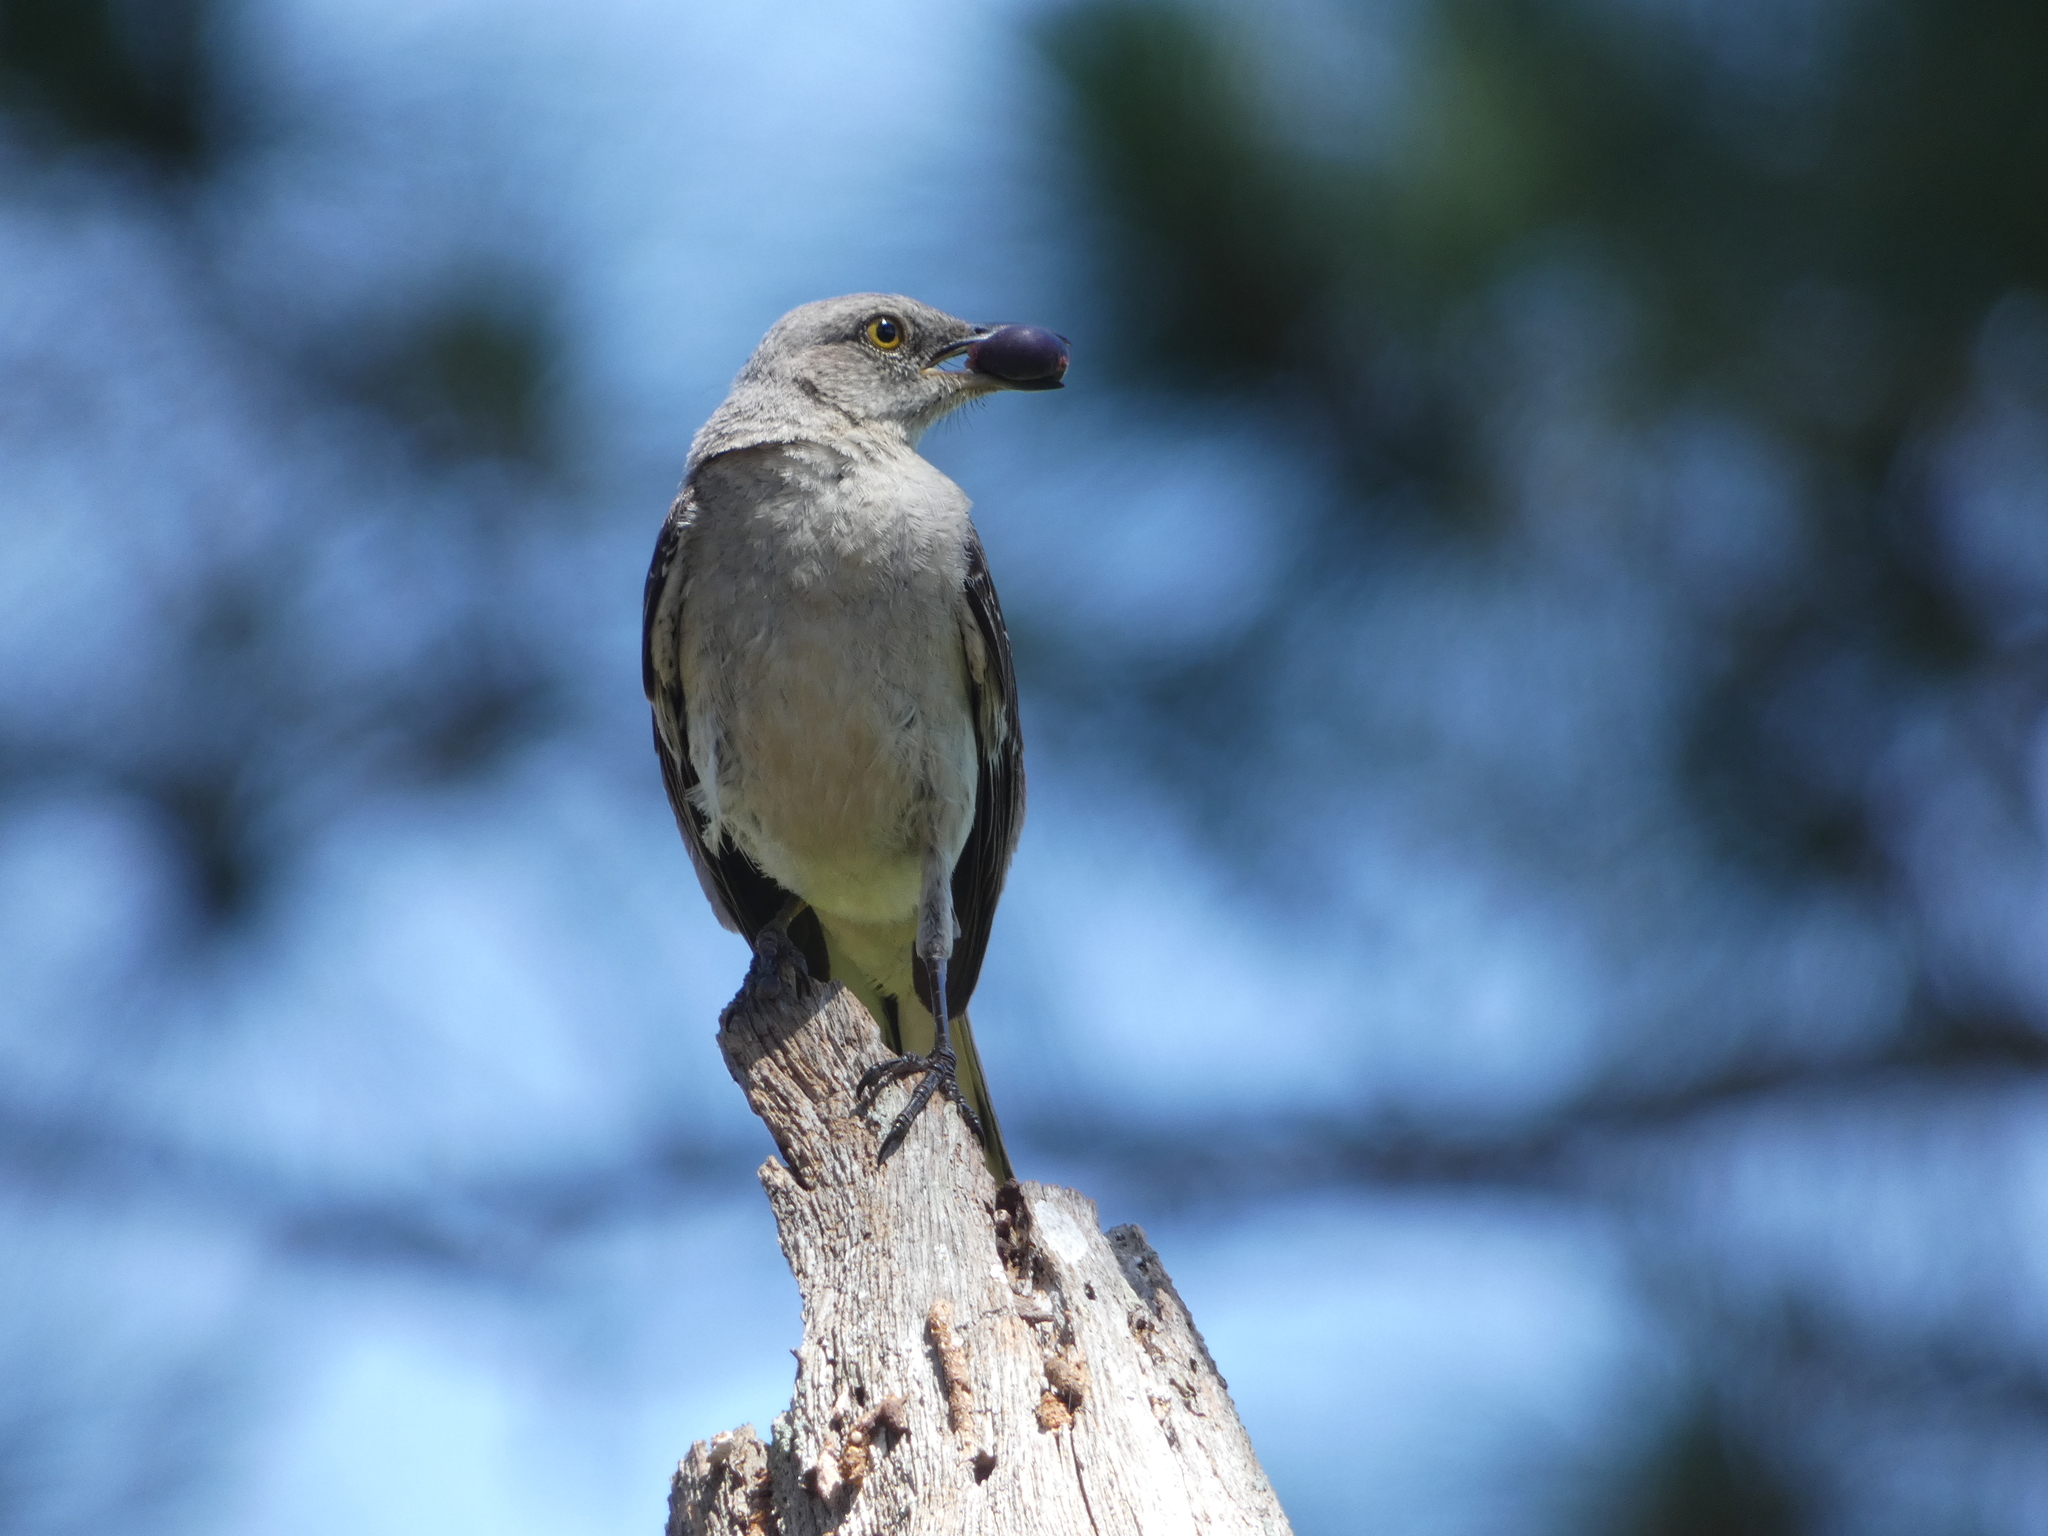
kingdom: Animalia
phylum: Chordata
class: Aves
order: Passeriformes
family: Mimidae
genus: Mimus
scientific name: Mimus polyglottos
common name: Northern mockingbird
